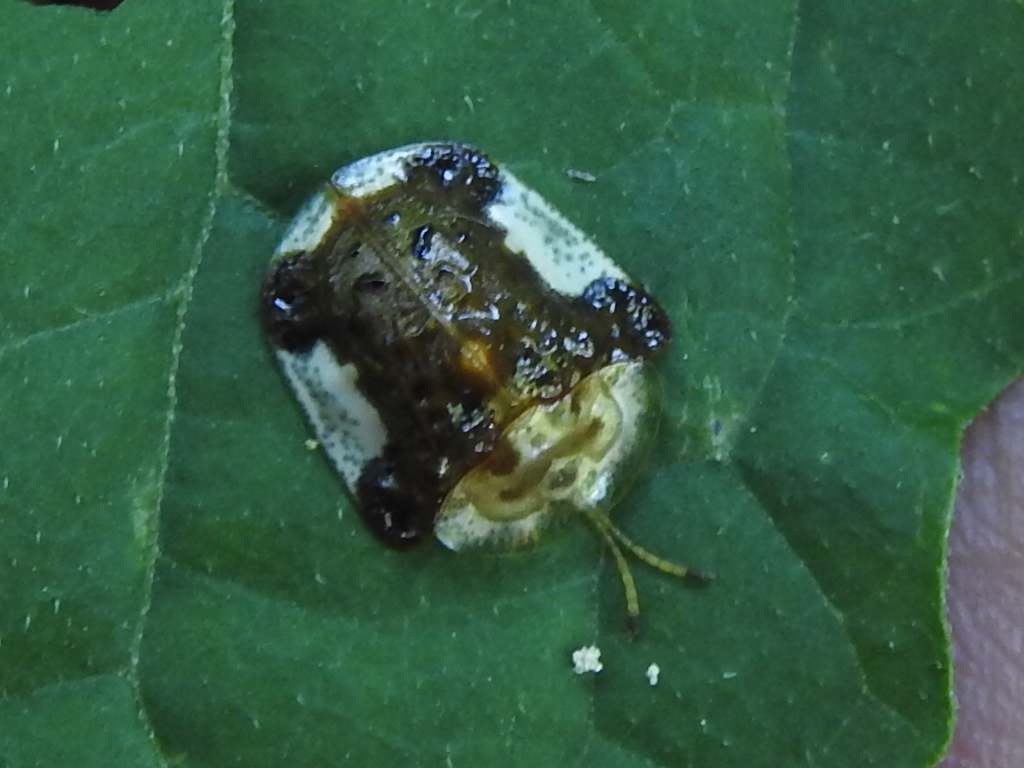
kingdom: Animalia
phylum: Arthropoda
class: Insecta
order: Coleoptera
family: Chrysomelidae
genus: Helocassis
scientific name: Helocassis clavata
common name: Clavate tortoise beetle
